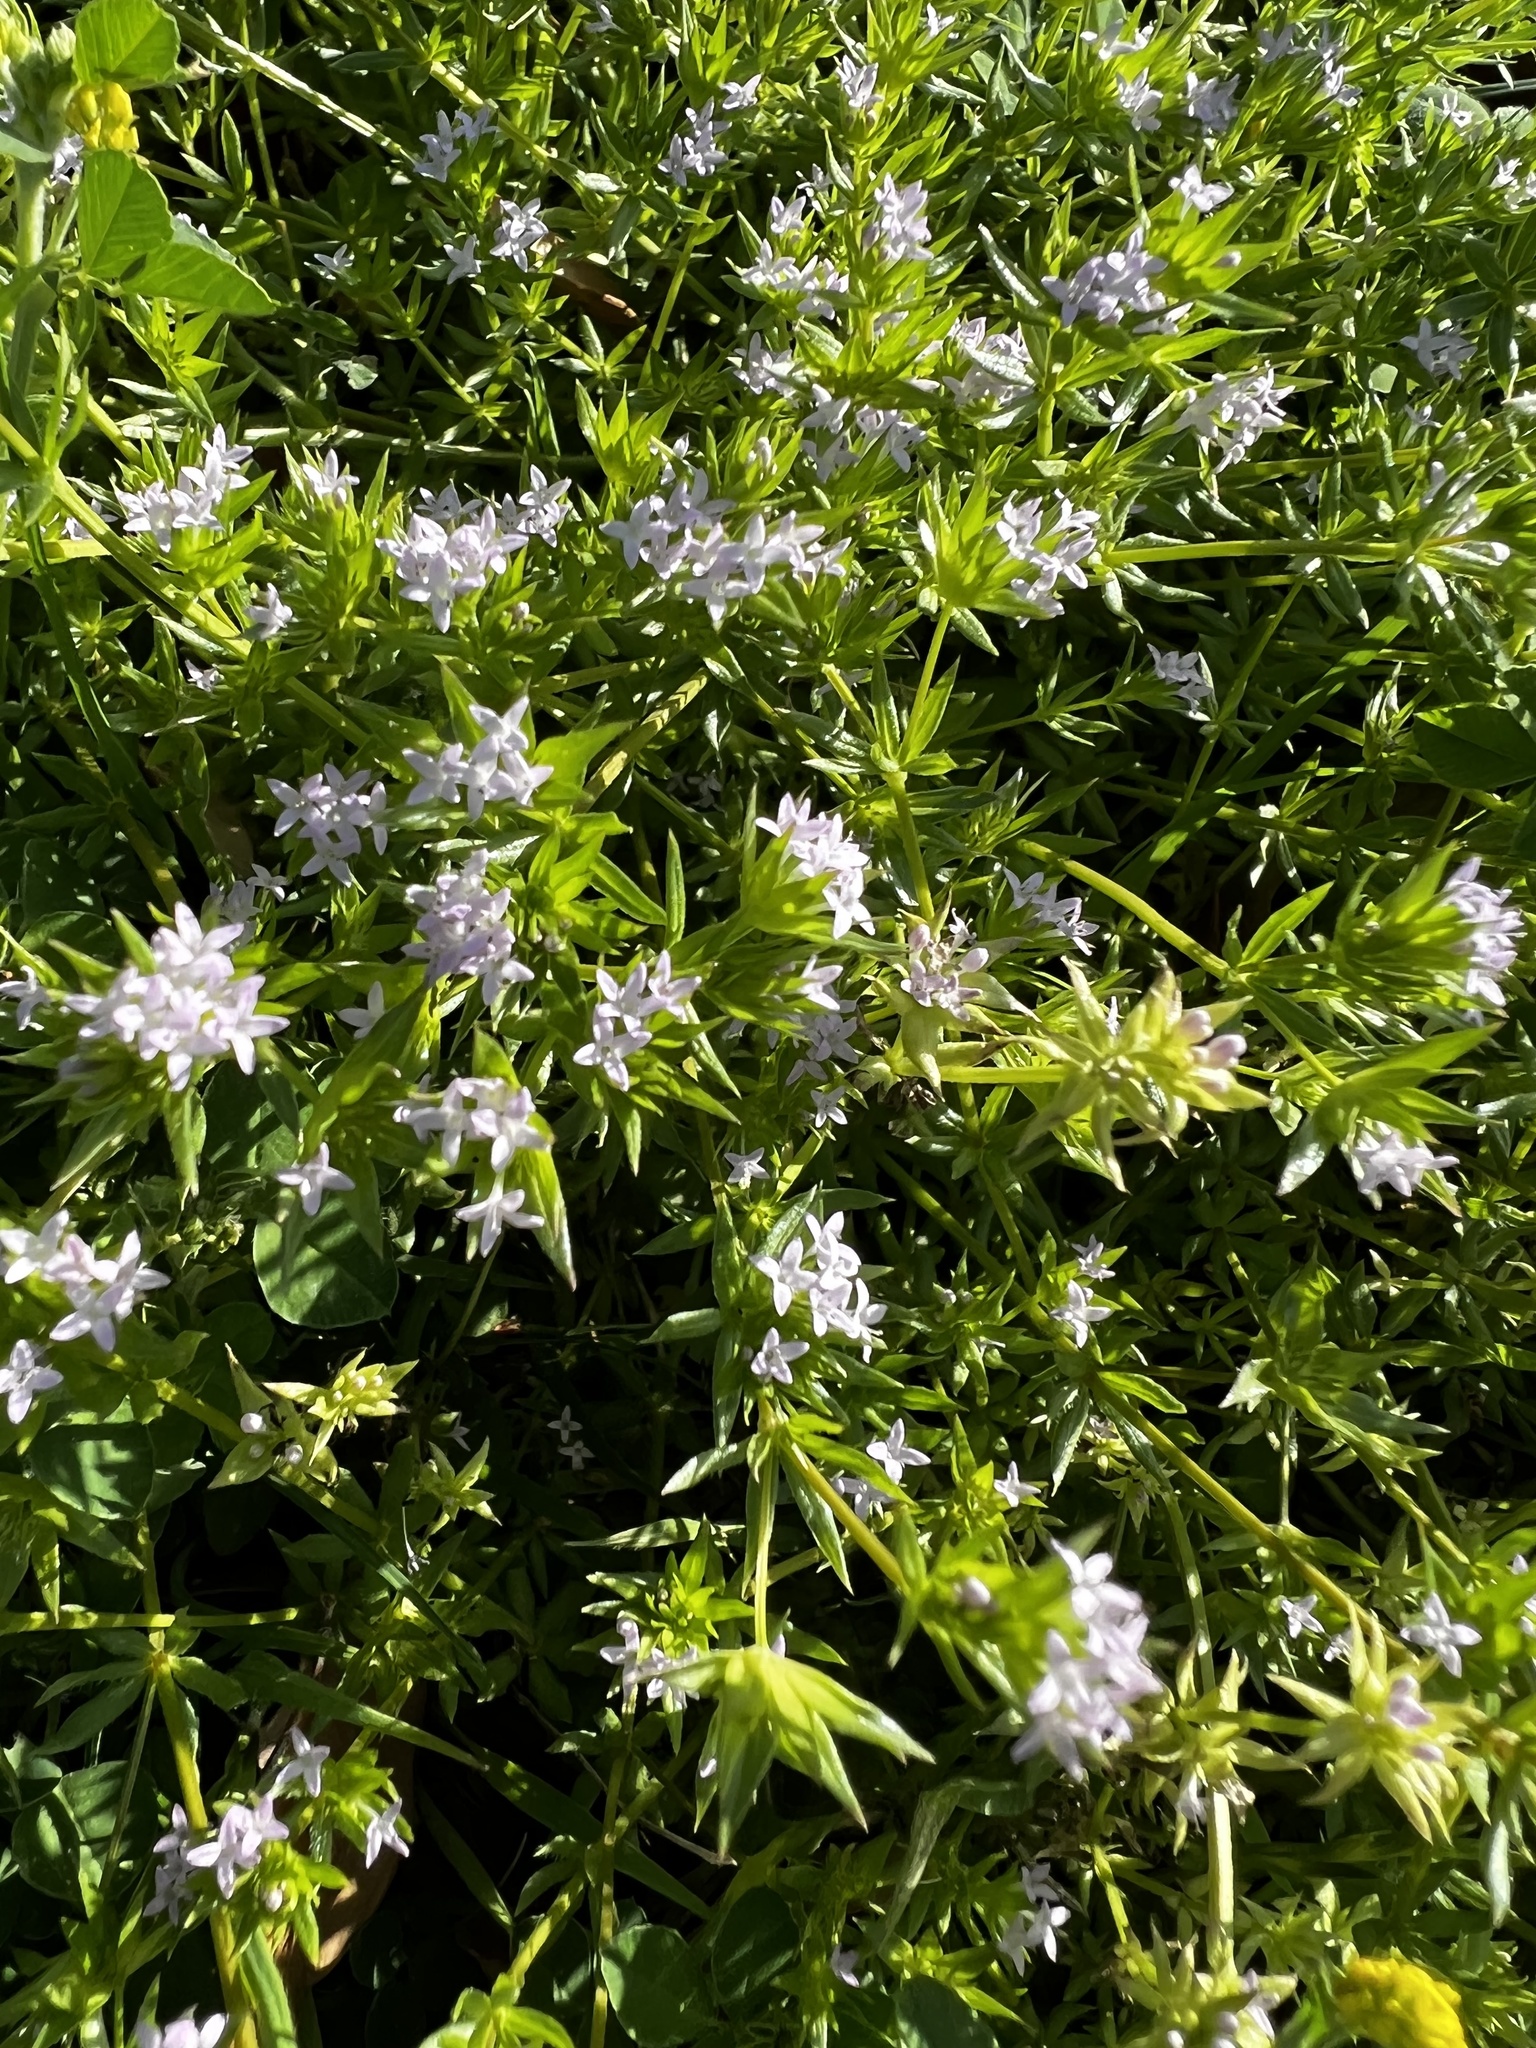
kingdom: Plantae
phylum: Tracheophyta
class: Magnoliopsida
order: Gentianales
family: Rubiaceae
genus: Sherardia
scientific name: Sherardia arvensis
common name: Field madder
